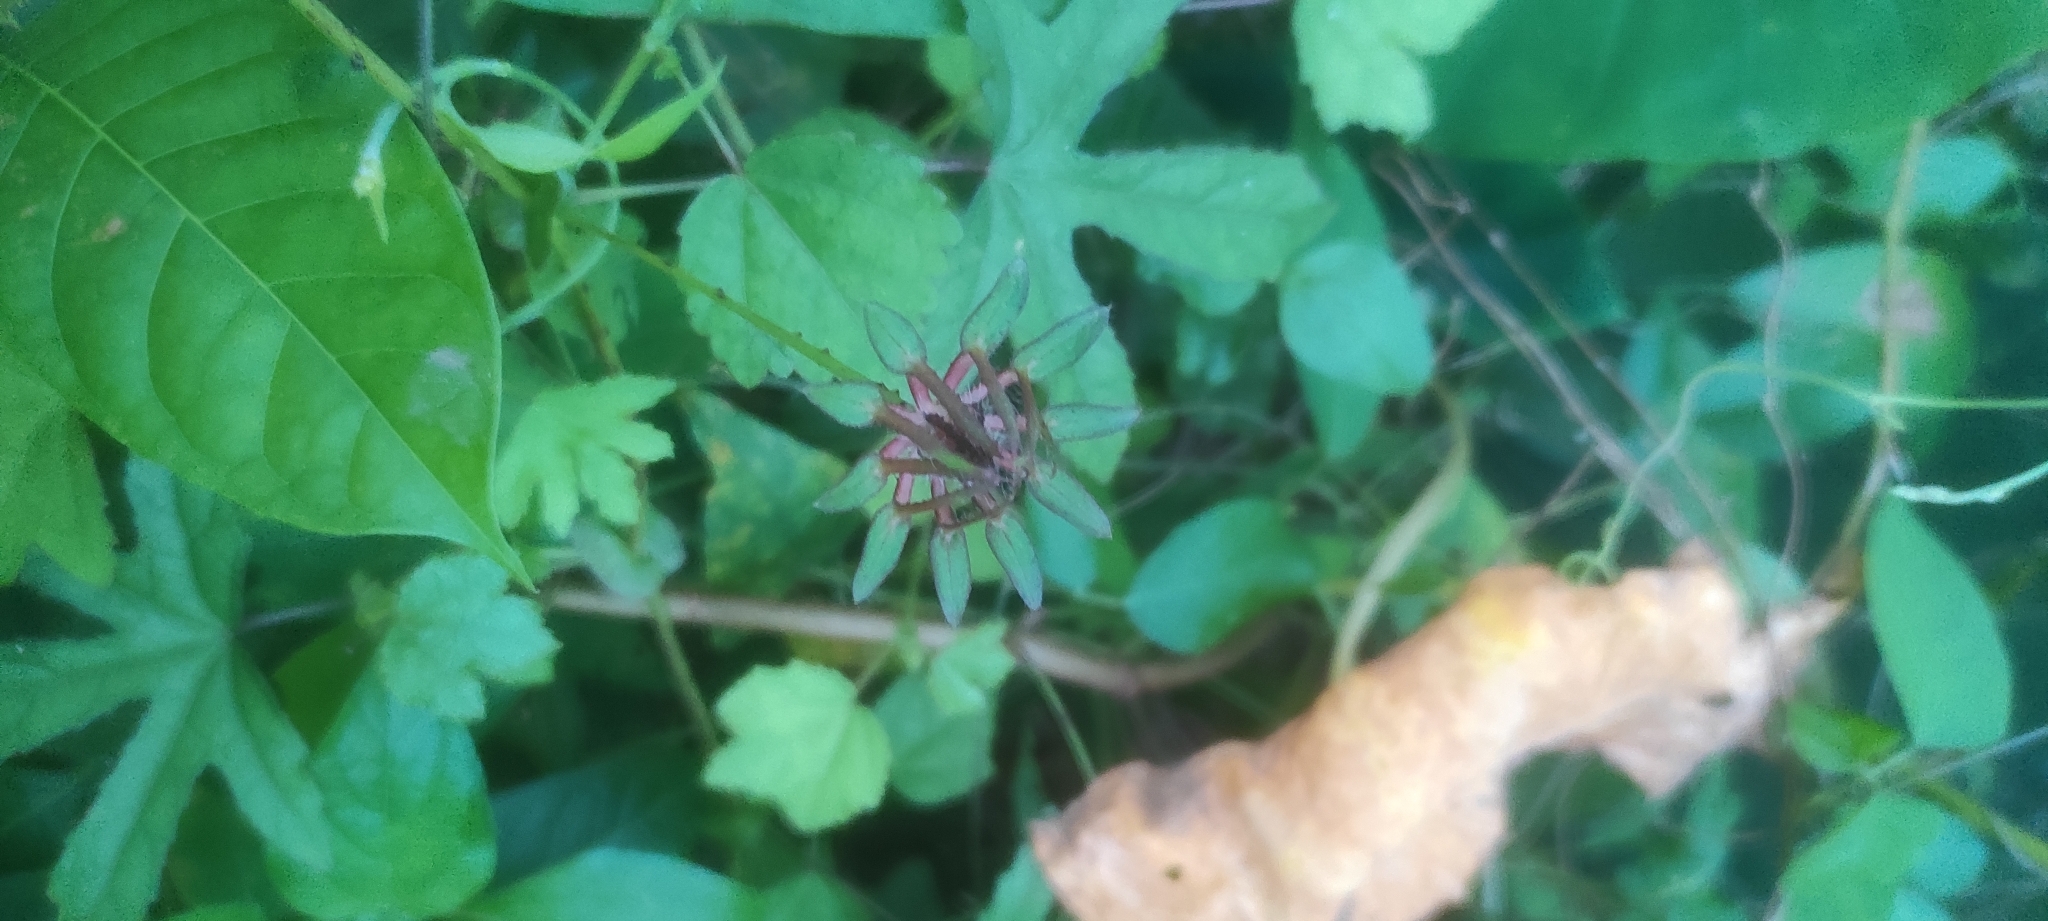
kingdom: Plantae
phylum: Tracheophyta
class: Magnoliopsida
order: Malvales
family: Malvaceae
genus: Hibiscus
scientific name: Hibiscus surattensis
